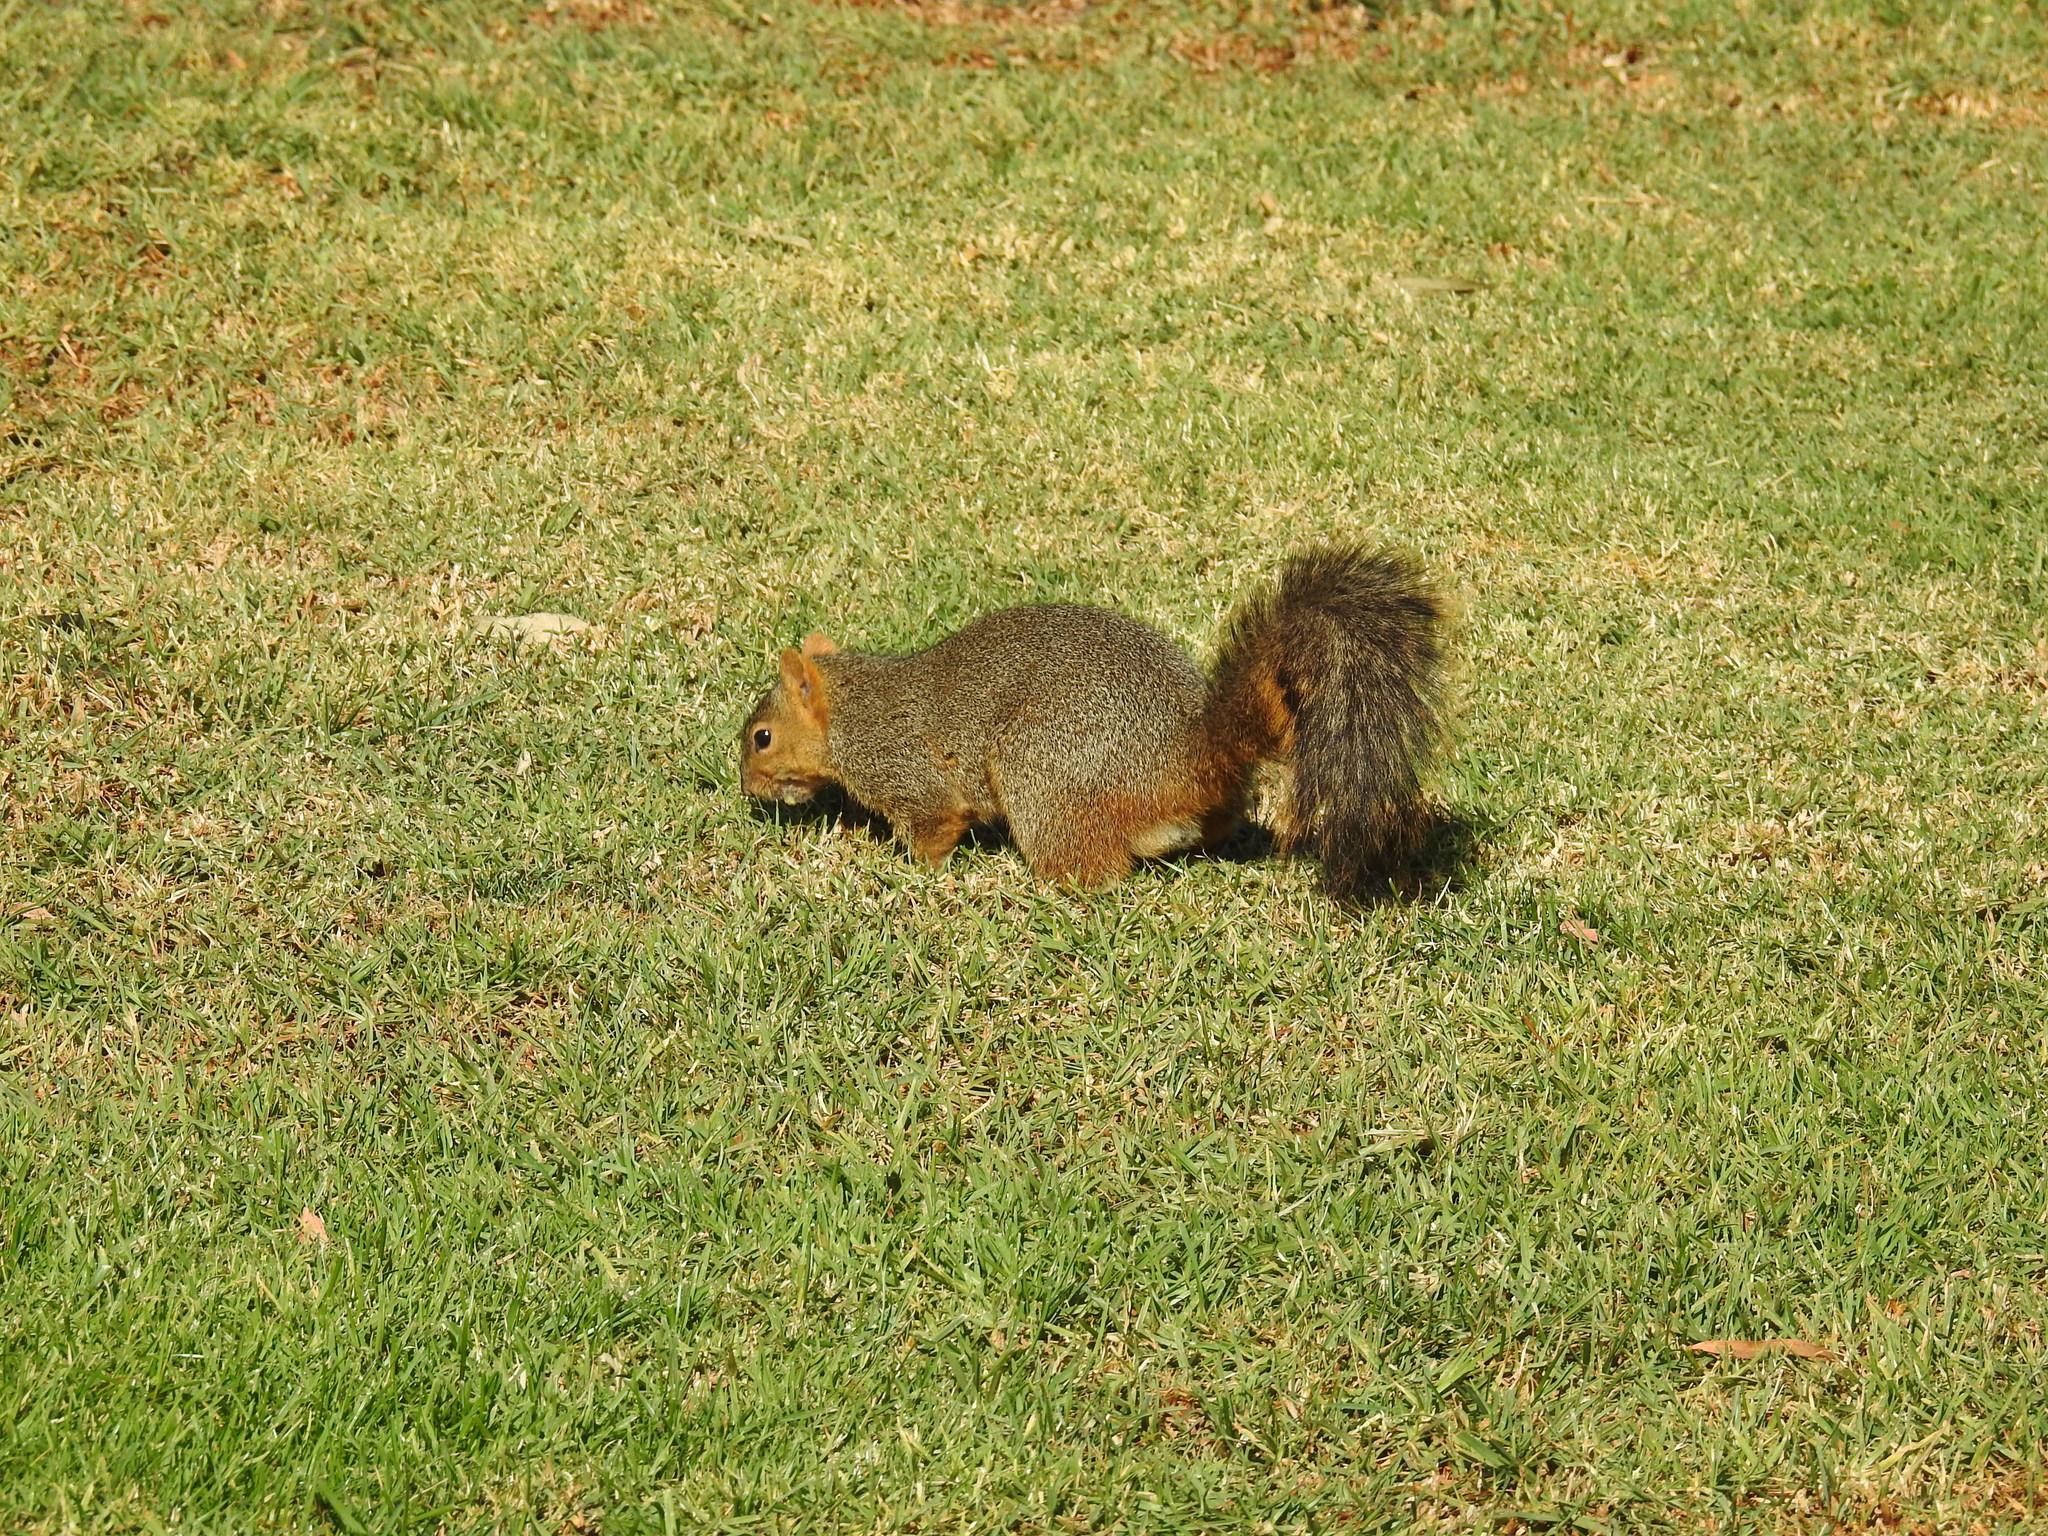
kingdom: Animalia
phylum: Chordata
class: Mammalia
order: Rodentia
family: Sciuridae
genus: Sciurus
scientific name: Sciurus niger
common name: Fox squirrel
